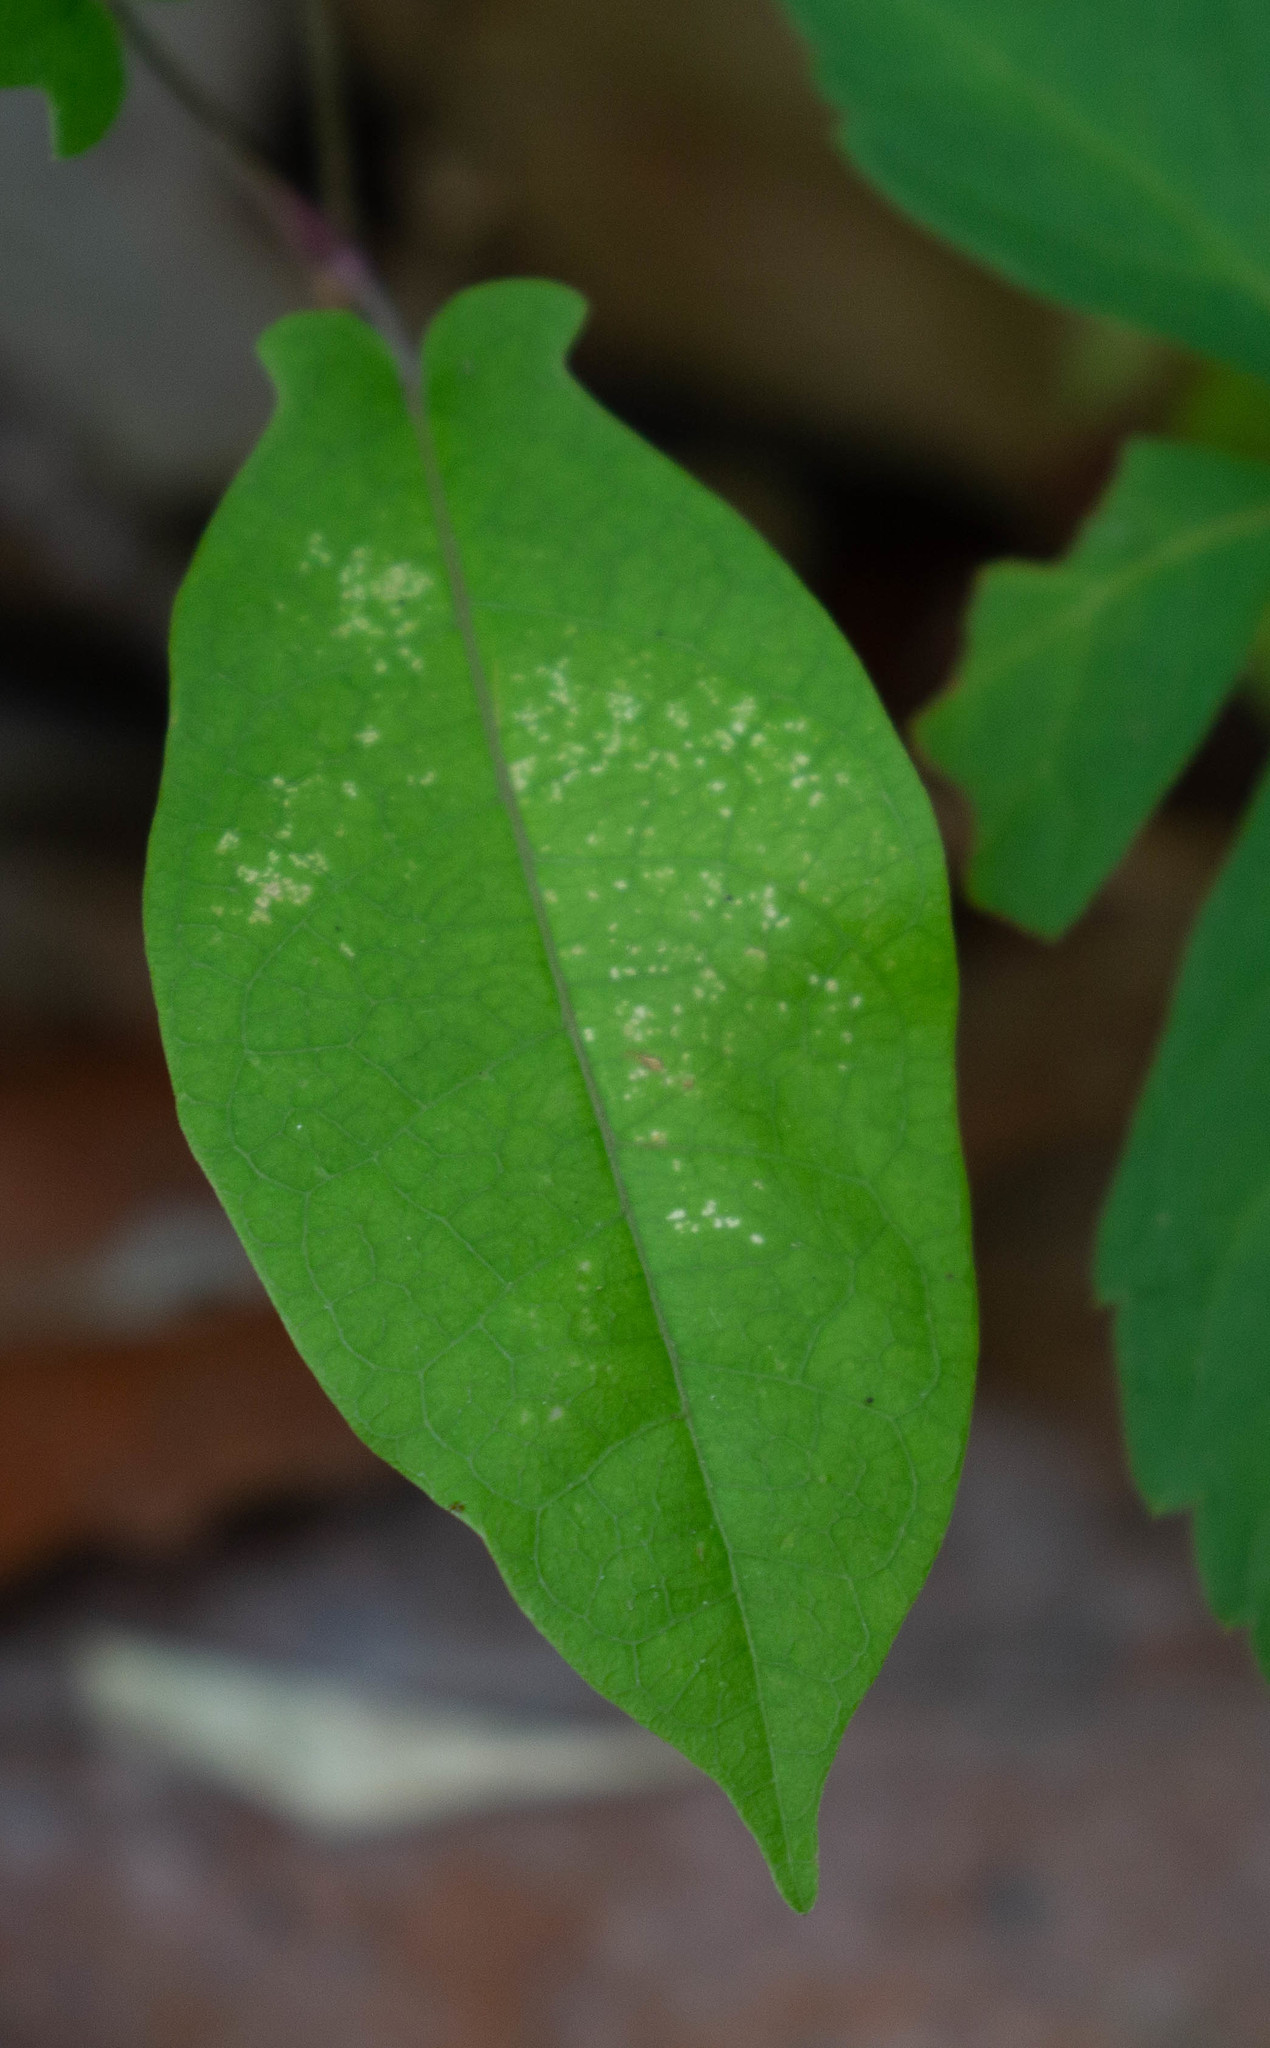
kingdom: Plantae
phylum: Tracheophyta
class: Magnoliopsida
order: Lamiales
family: Bignoniaceae
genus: Bignonia
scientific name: Bignonia capreolata
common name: Crossvine
